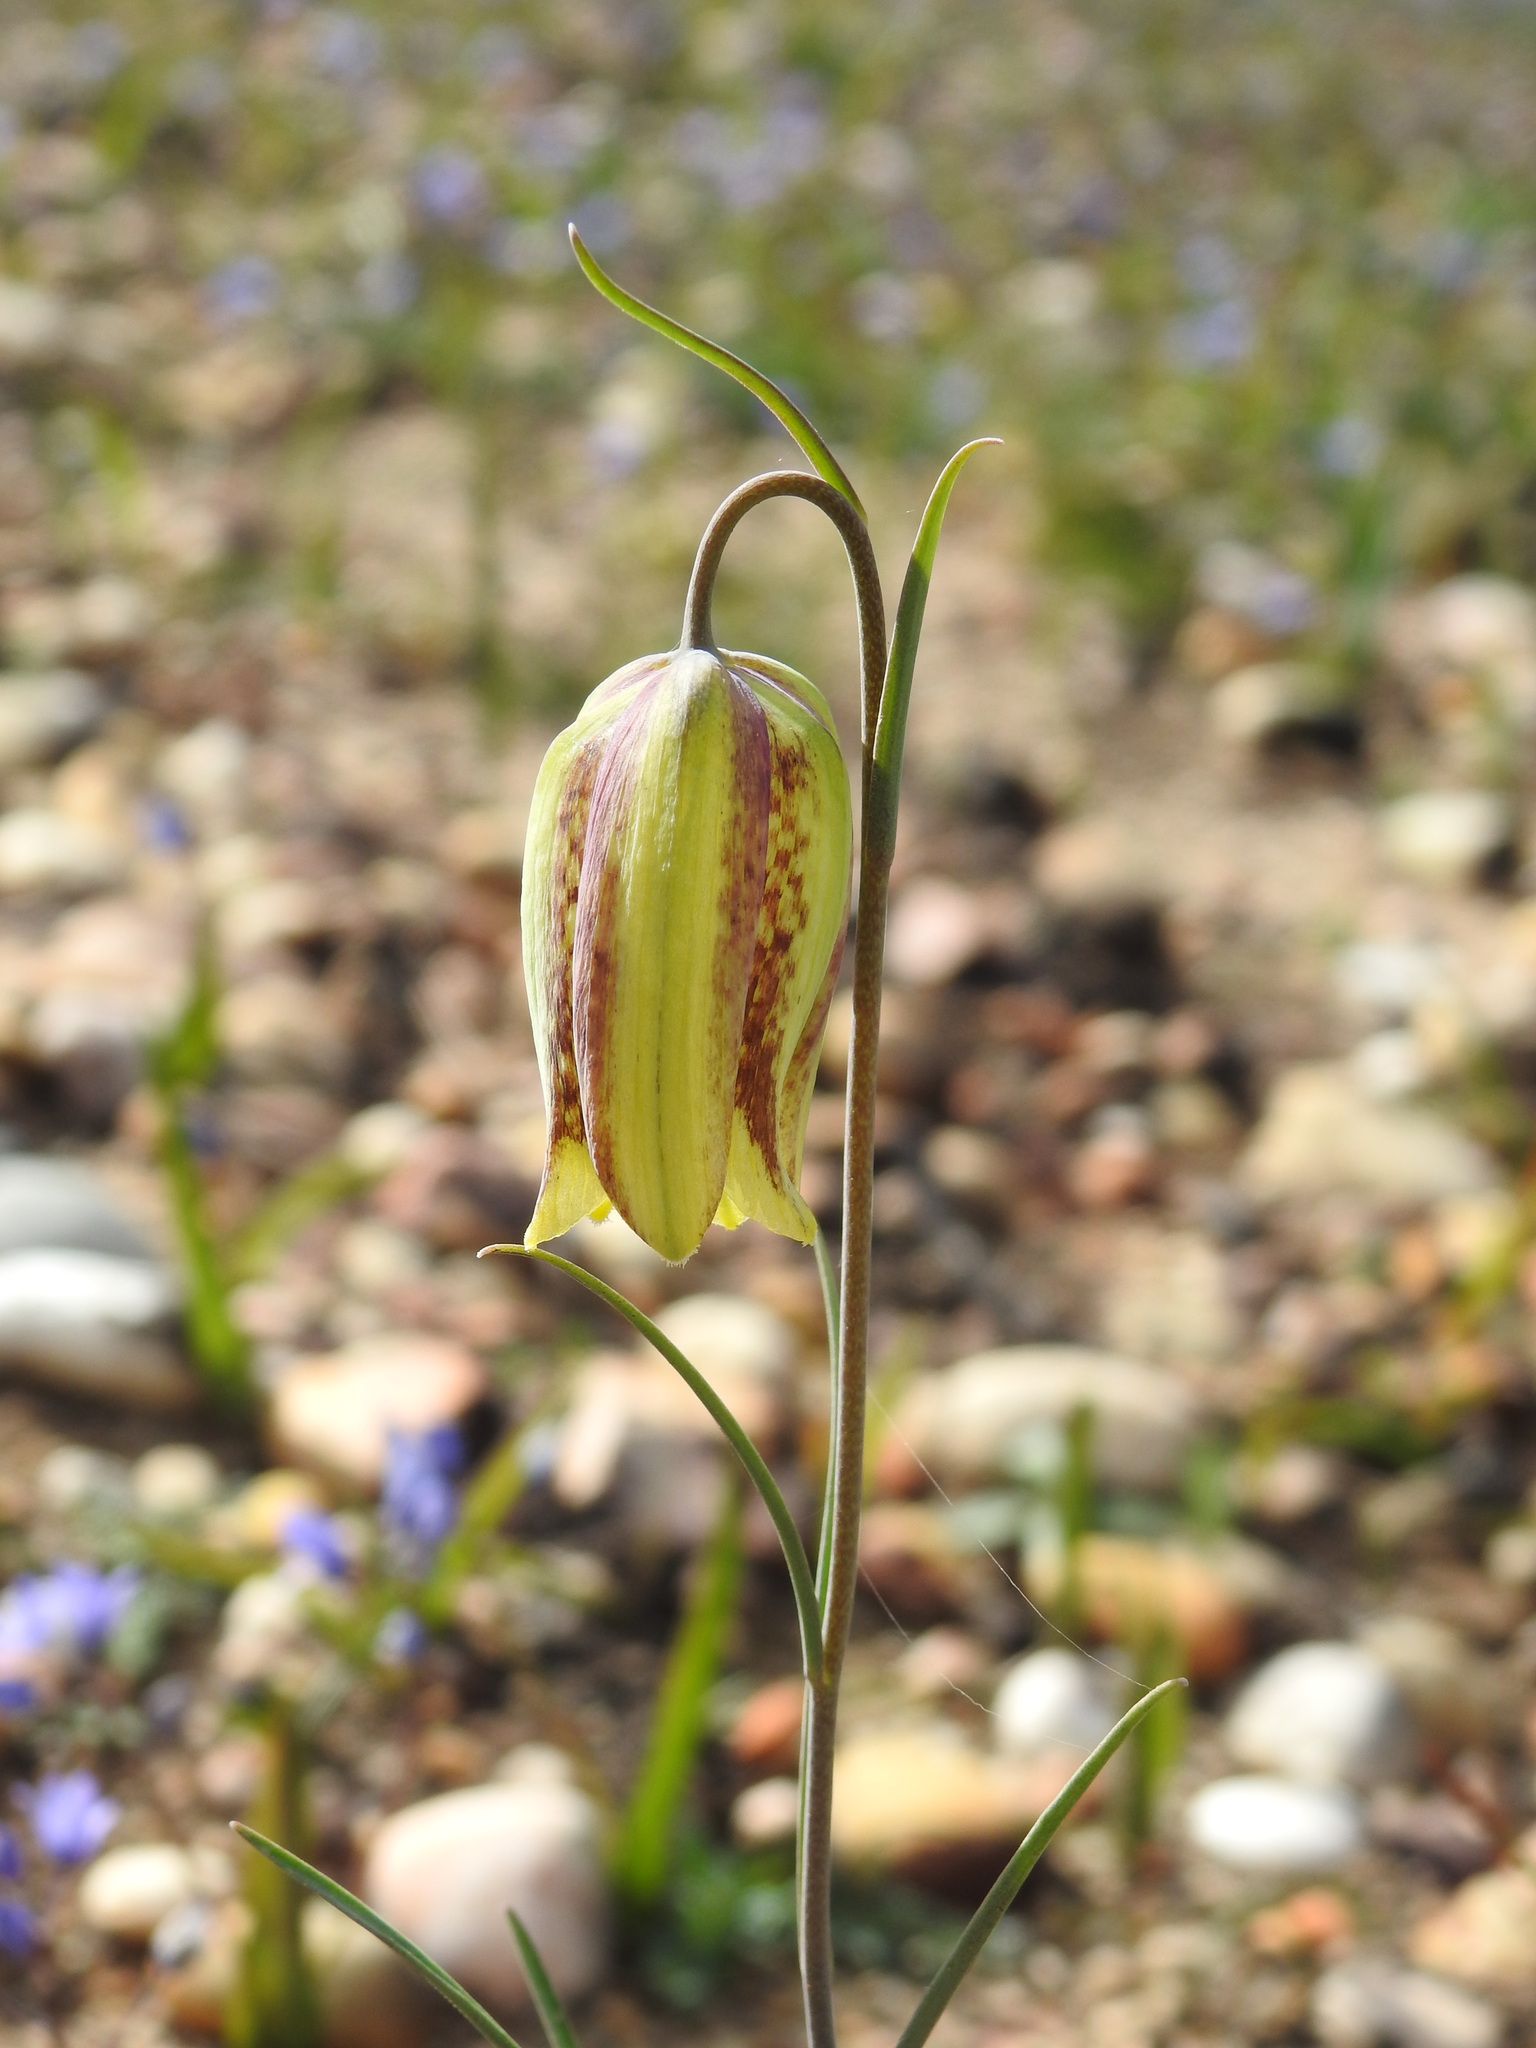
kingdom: Plantae
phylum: Tracheophyta
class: Liliopsida
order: Liliales
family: Liliaceae
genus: Fritillaria
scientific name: Fritillaria lusitanica
